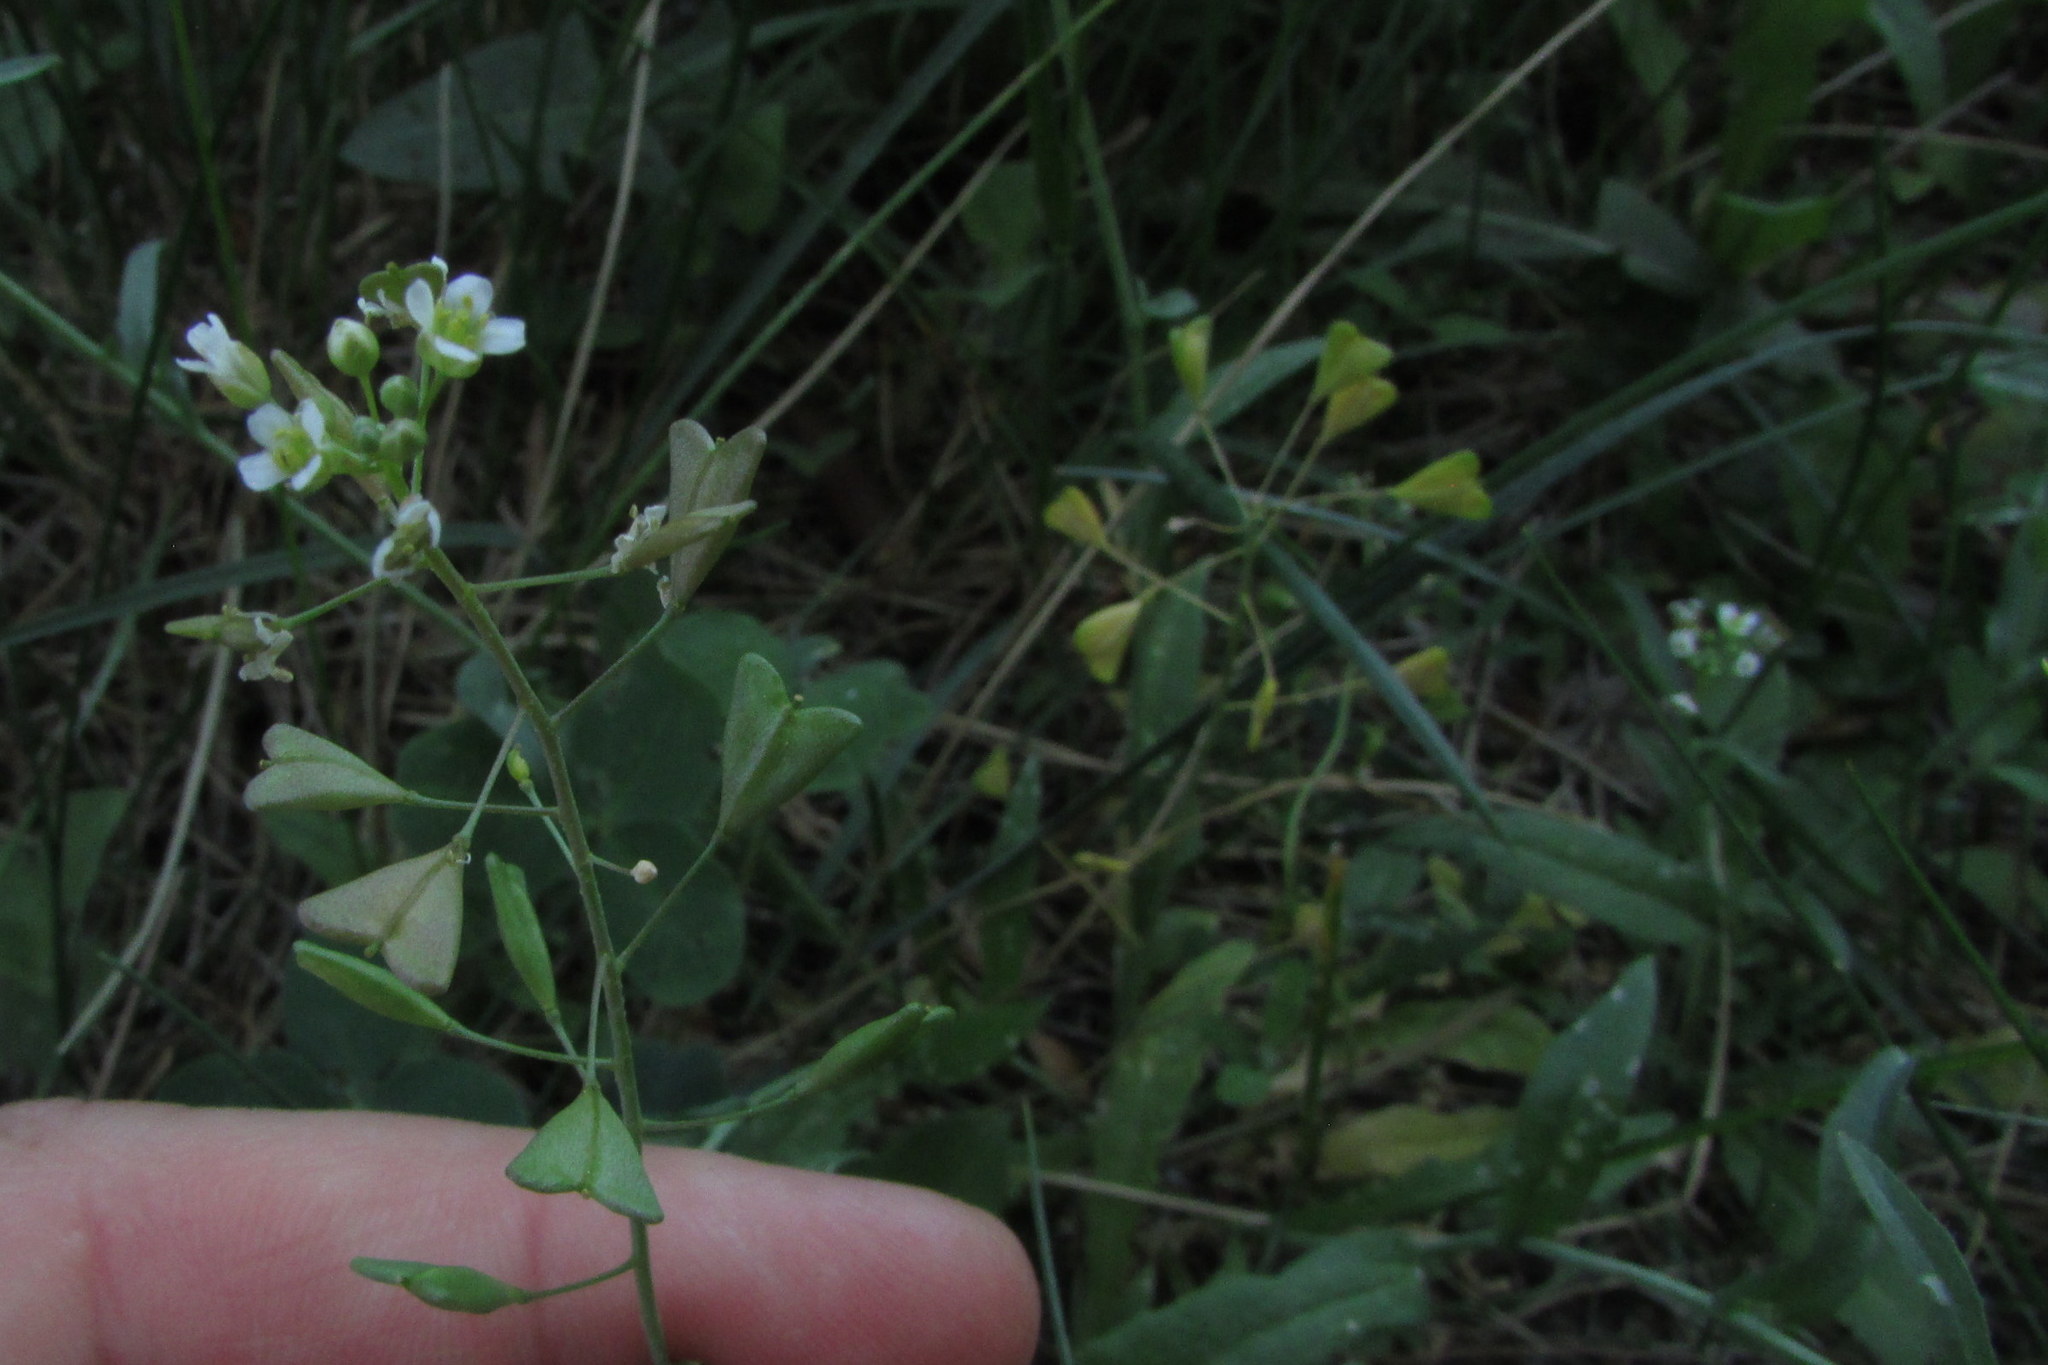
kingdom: Plantae
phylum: Tracheophyta
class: Magnoliopsida
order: Brassicales
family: Brassicaceae
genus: Capsella
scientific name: Capsella bursa-pastoris
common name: Shepherd's purse
